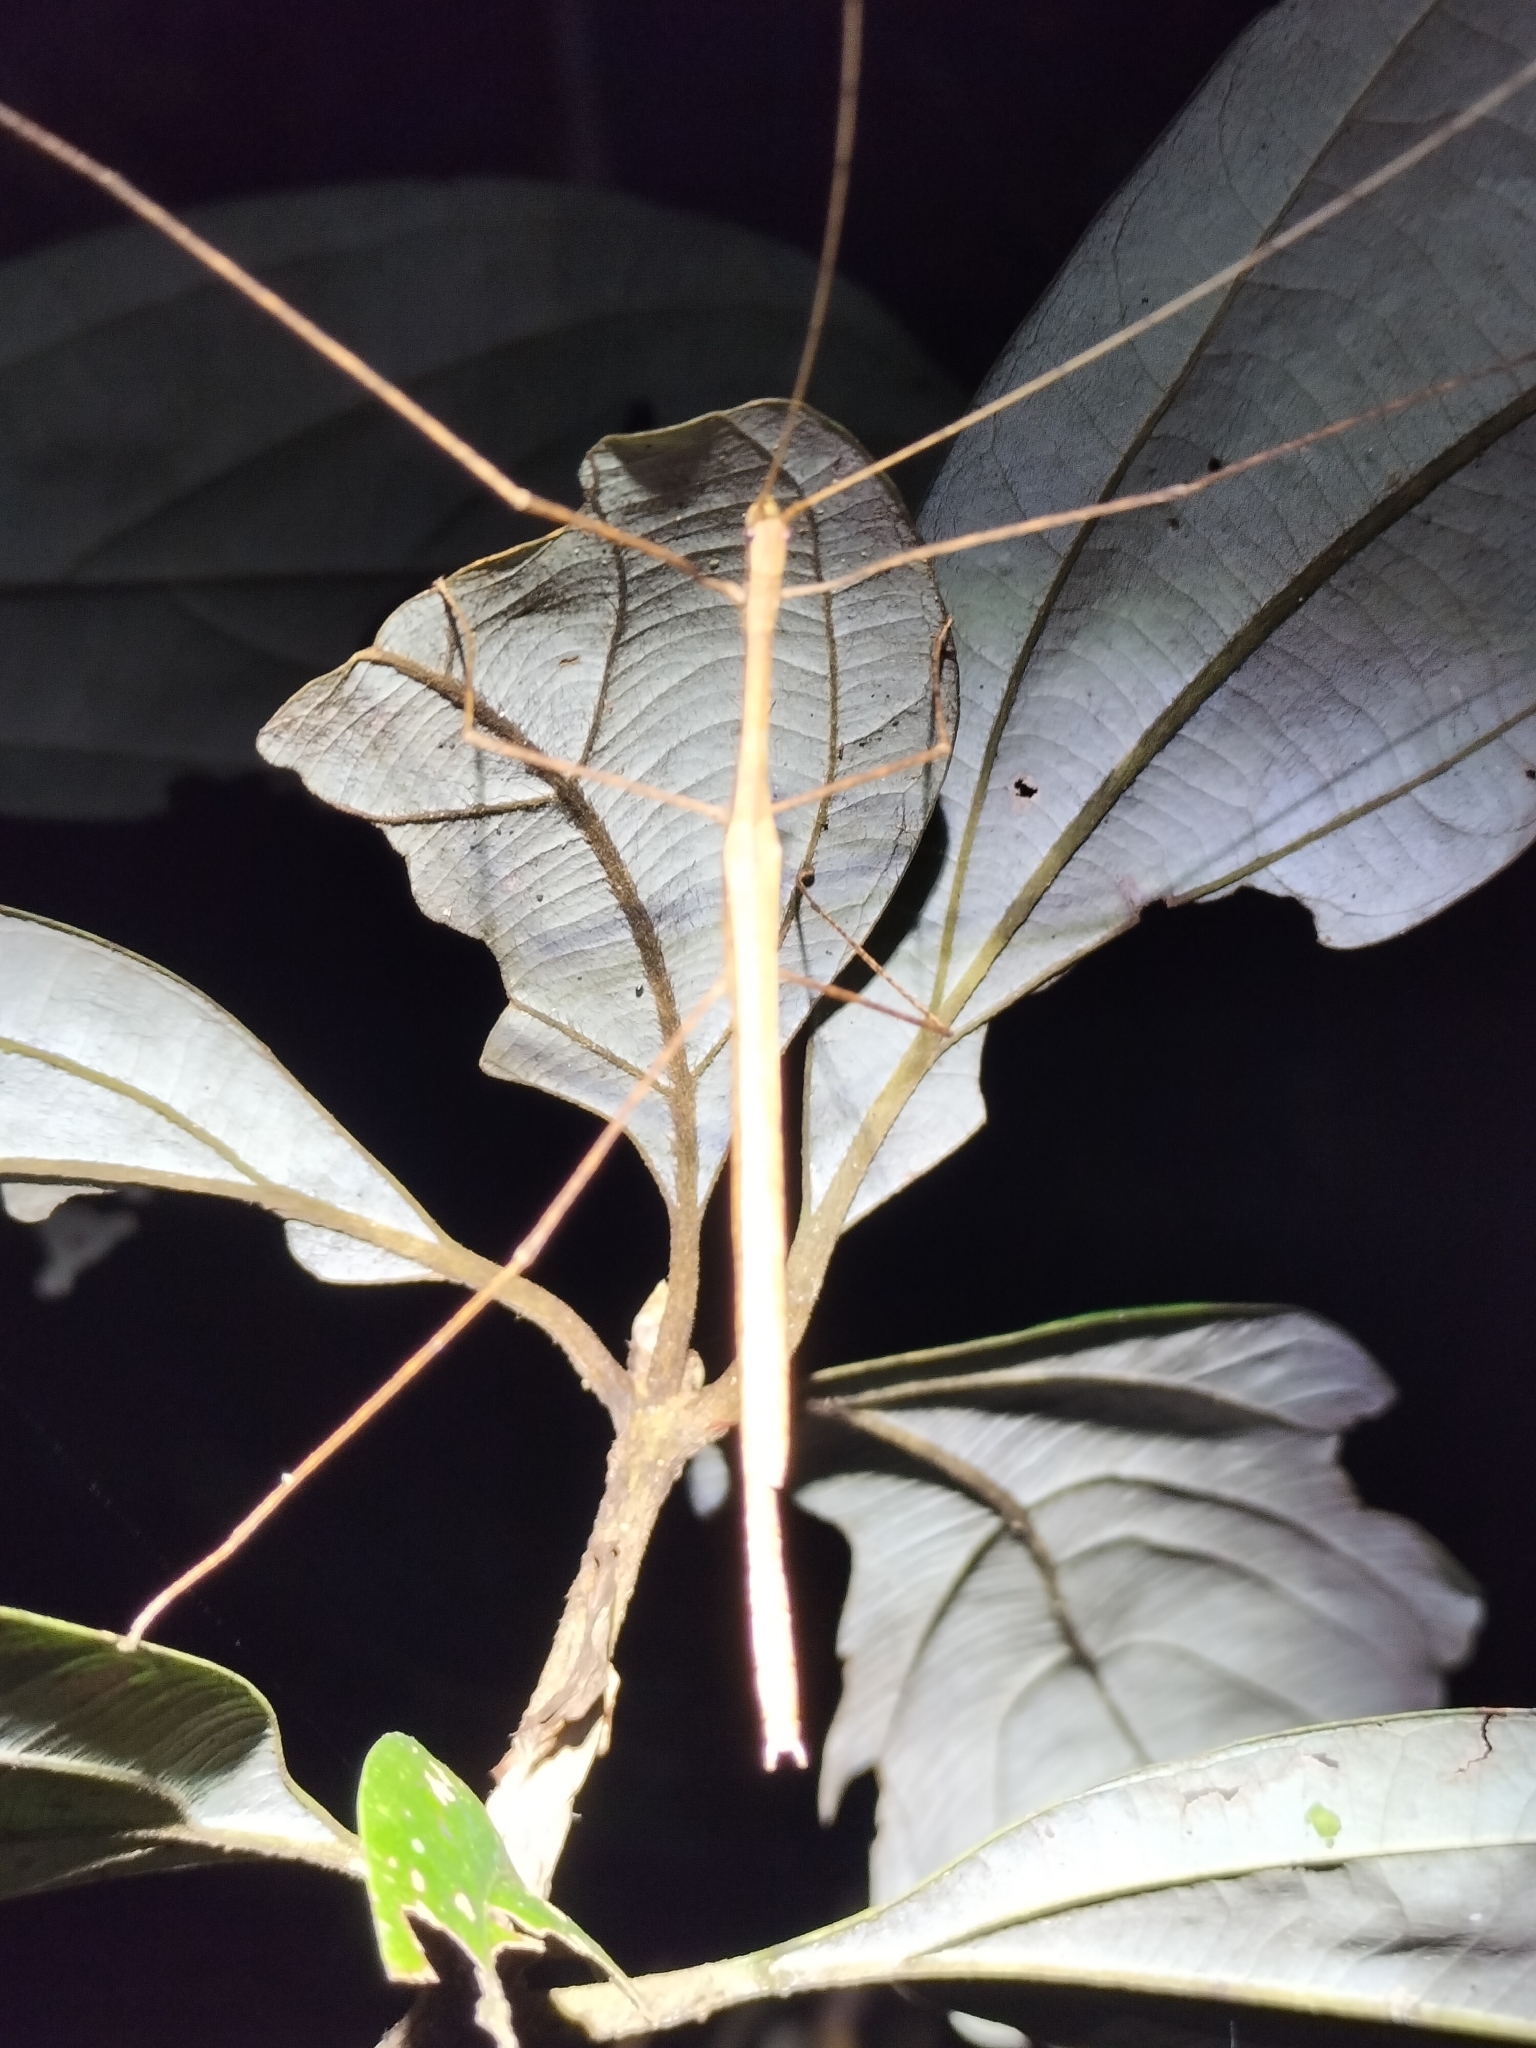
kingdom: Animalia
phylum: Arthropoda
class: Insecta
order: Phasmida
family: Lonchodidae
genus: Sipyloidea
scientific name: Sipyloidea larryi
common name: Hurricane larry stick-insect
